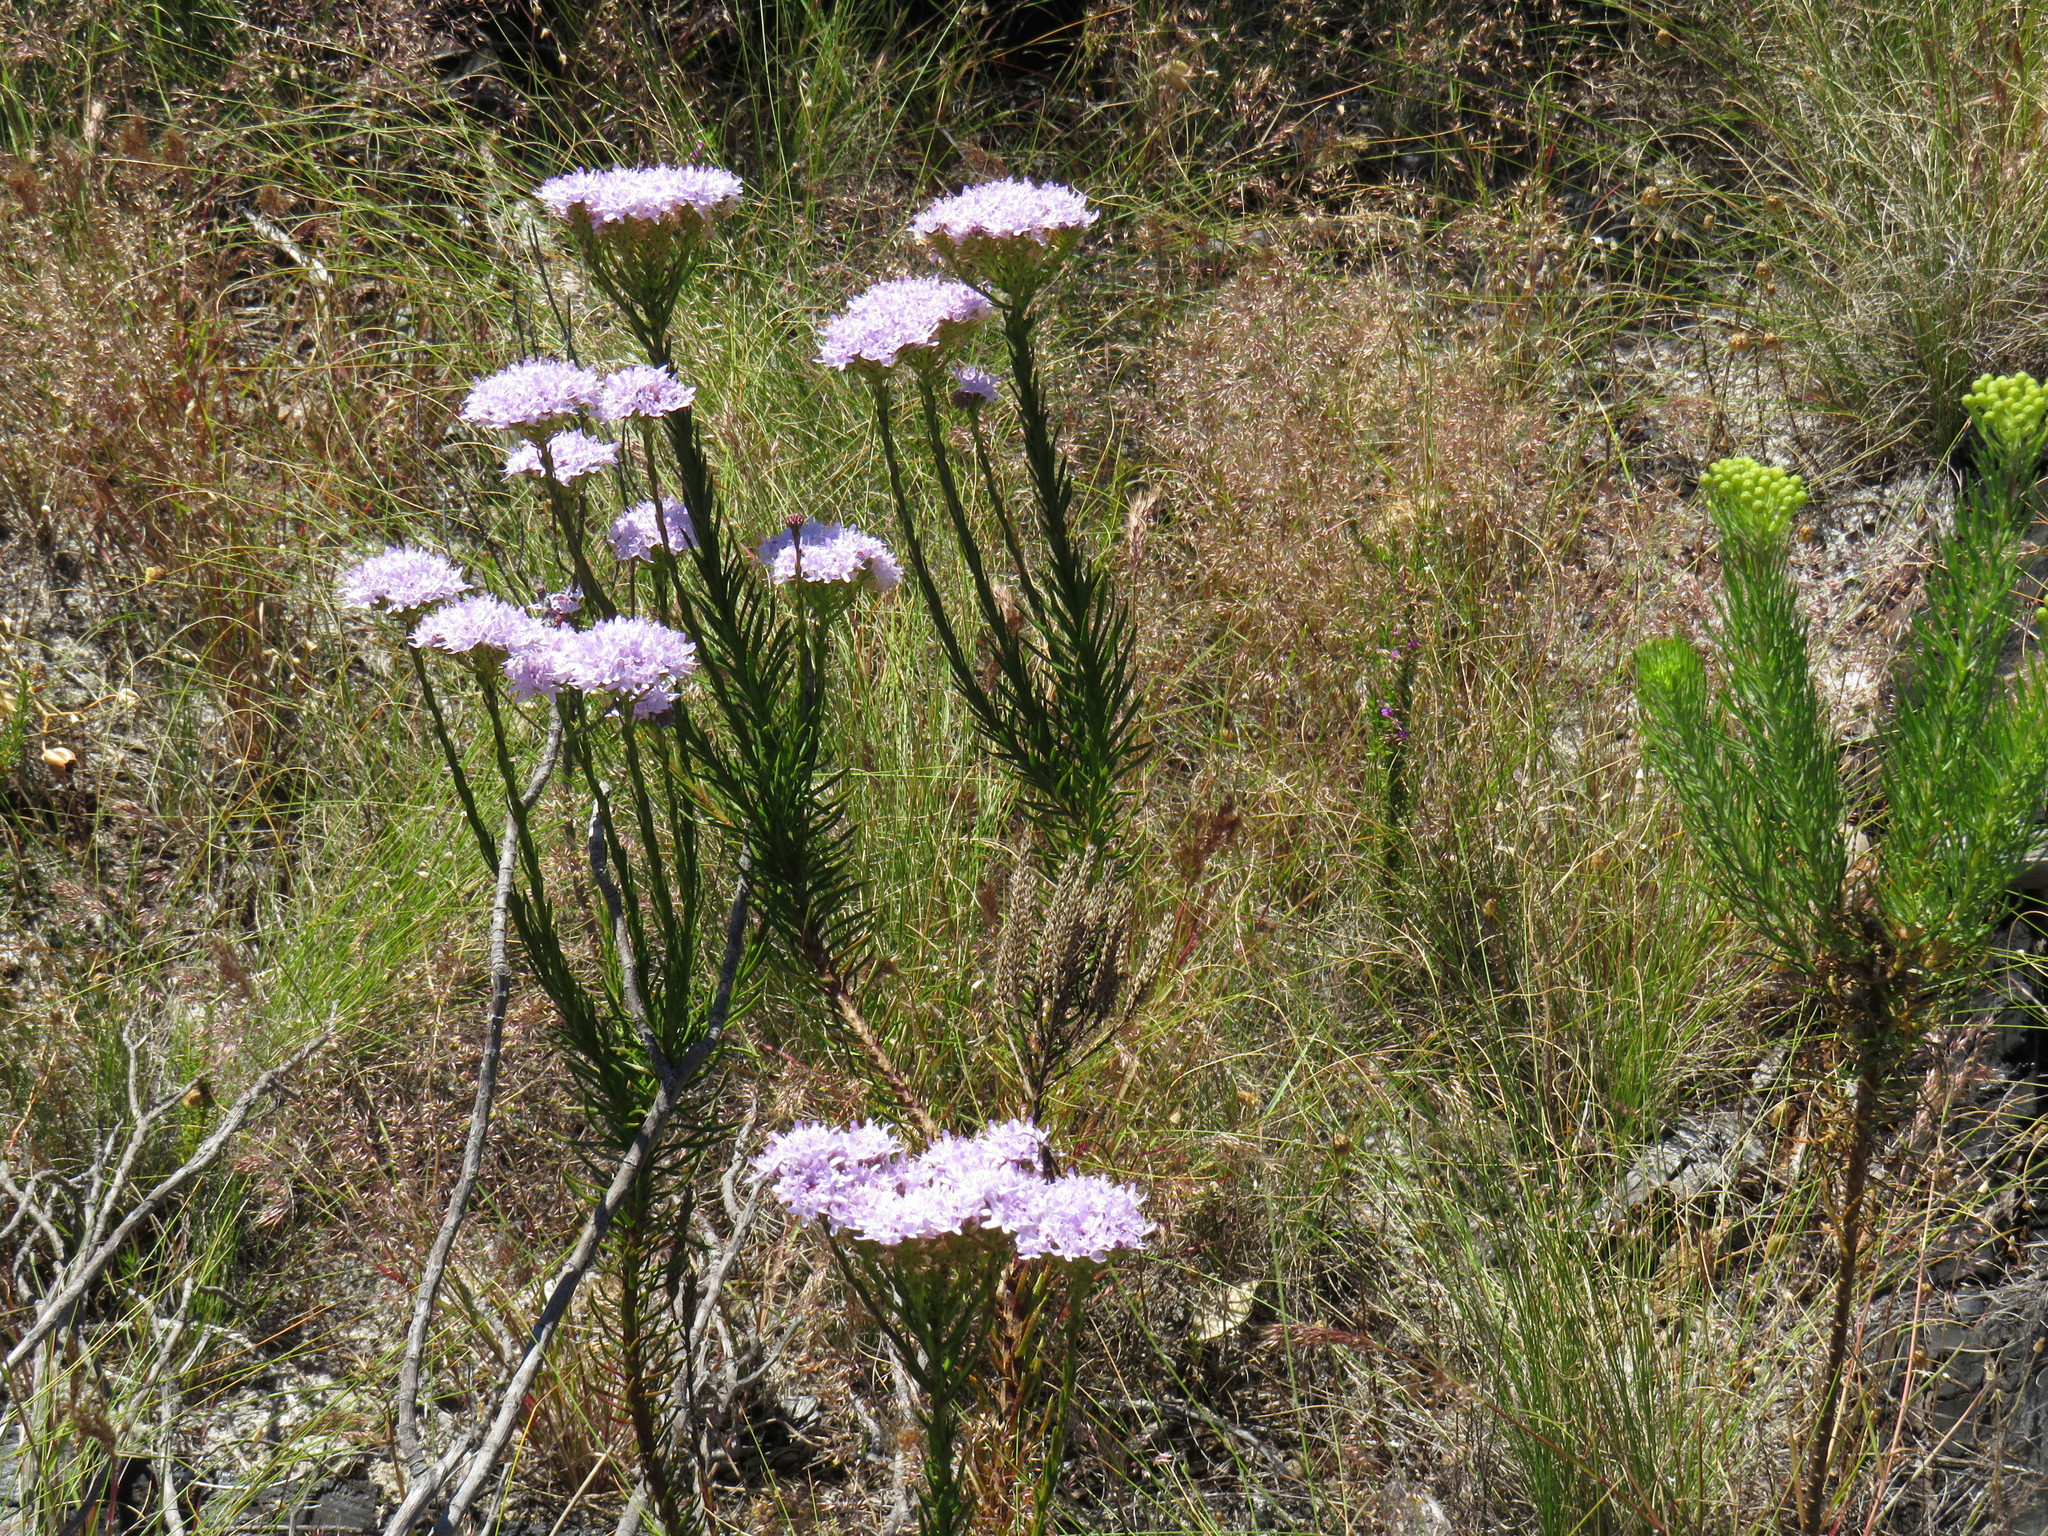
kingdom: Plantae
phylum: Tracheophyta
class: Magnoliopsida
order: Lamiales
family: Scrophulariaceae
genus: Pseudoselago
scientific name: Pseudoselago spuria
